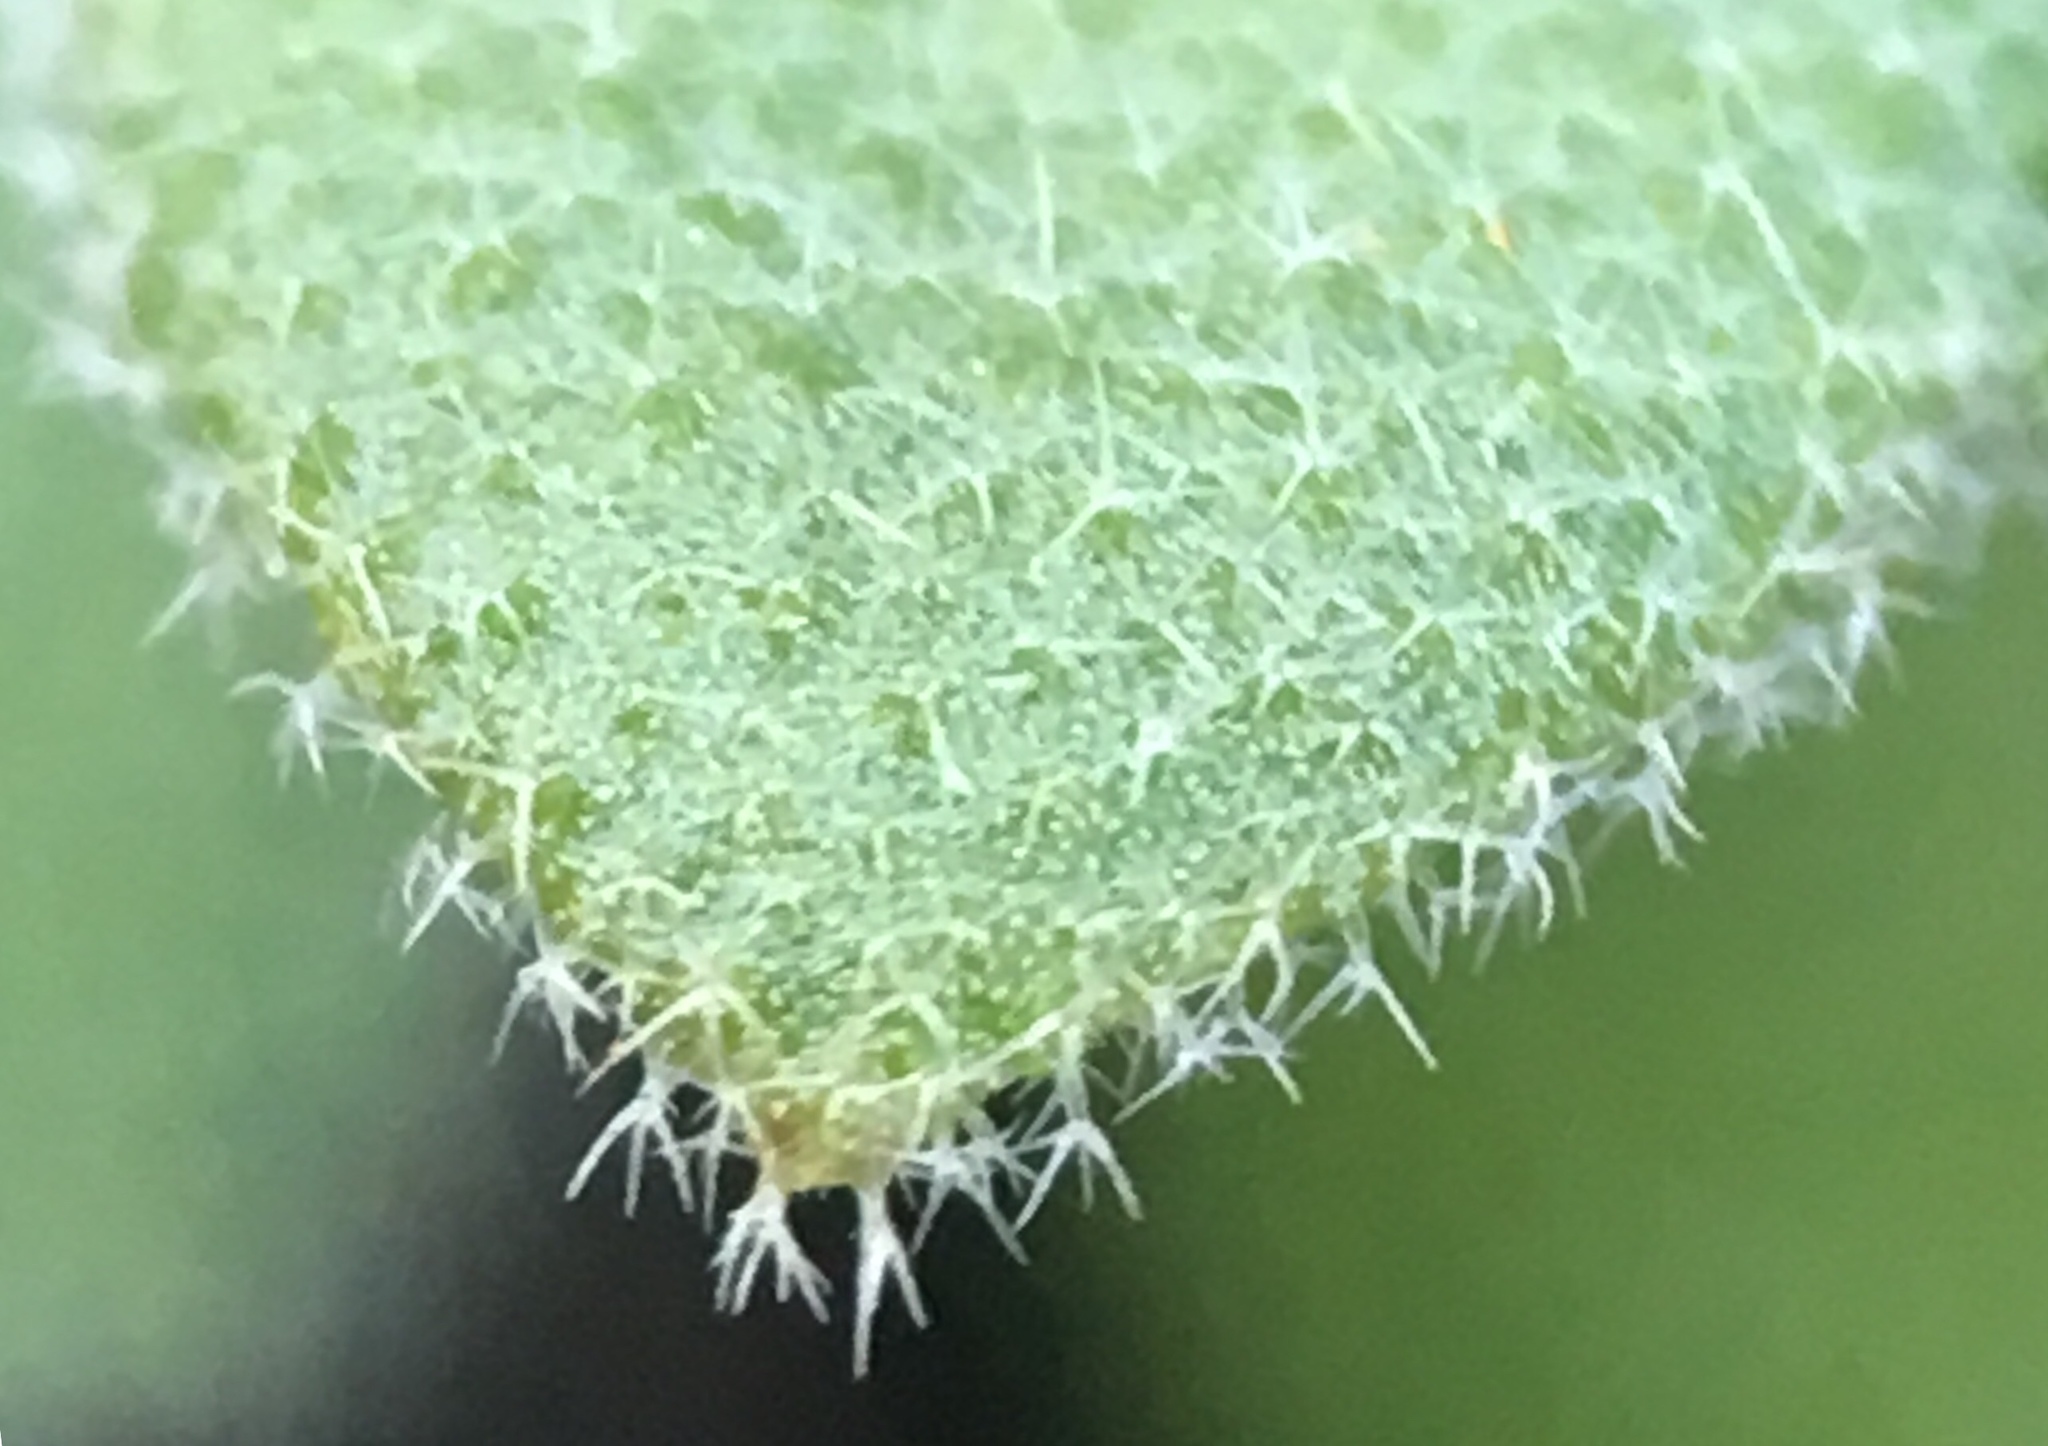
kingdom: Plantae
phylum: Tracheophyta
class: Magnoliopsida
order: Brassicales
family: Brassicaceae
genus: Tomostima
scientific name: Tomostima cuneifolia
